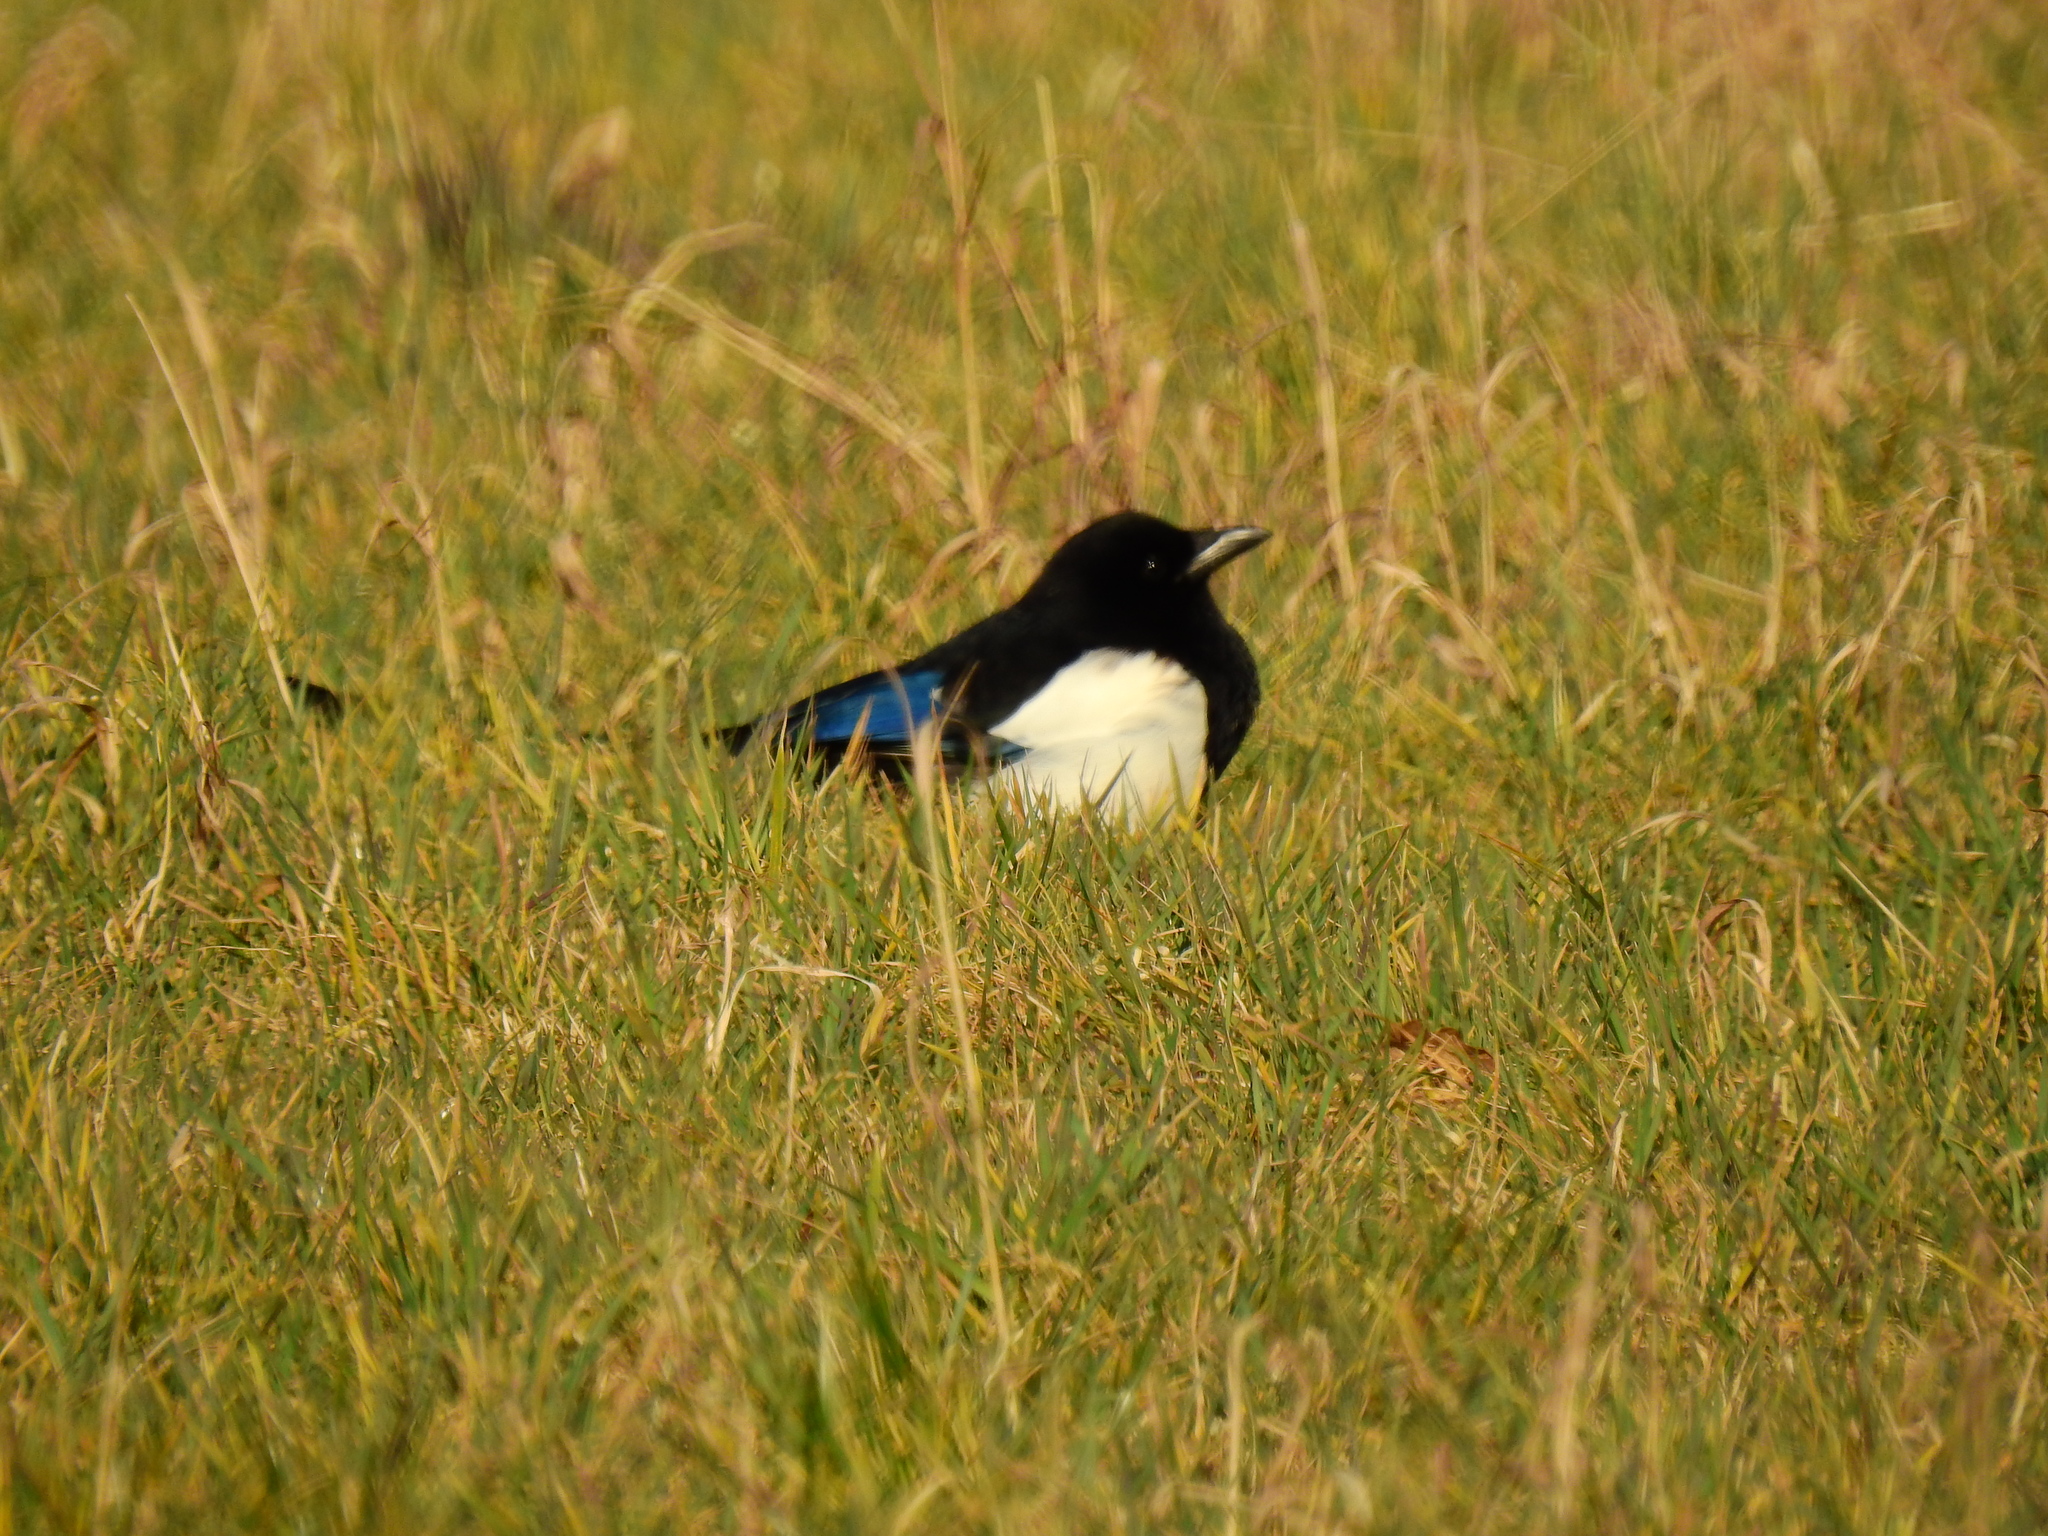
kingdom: Animalia
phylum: Chordata
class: Aves
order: Passeriformes
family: Corvidae
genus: Pica
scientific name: Pica pica
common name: Eurasian magpie
